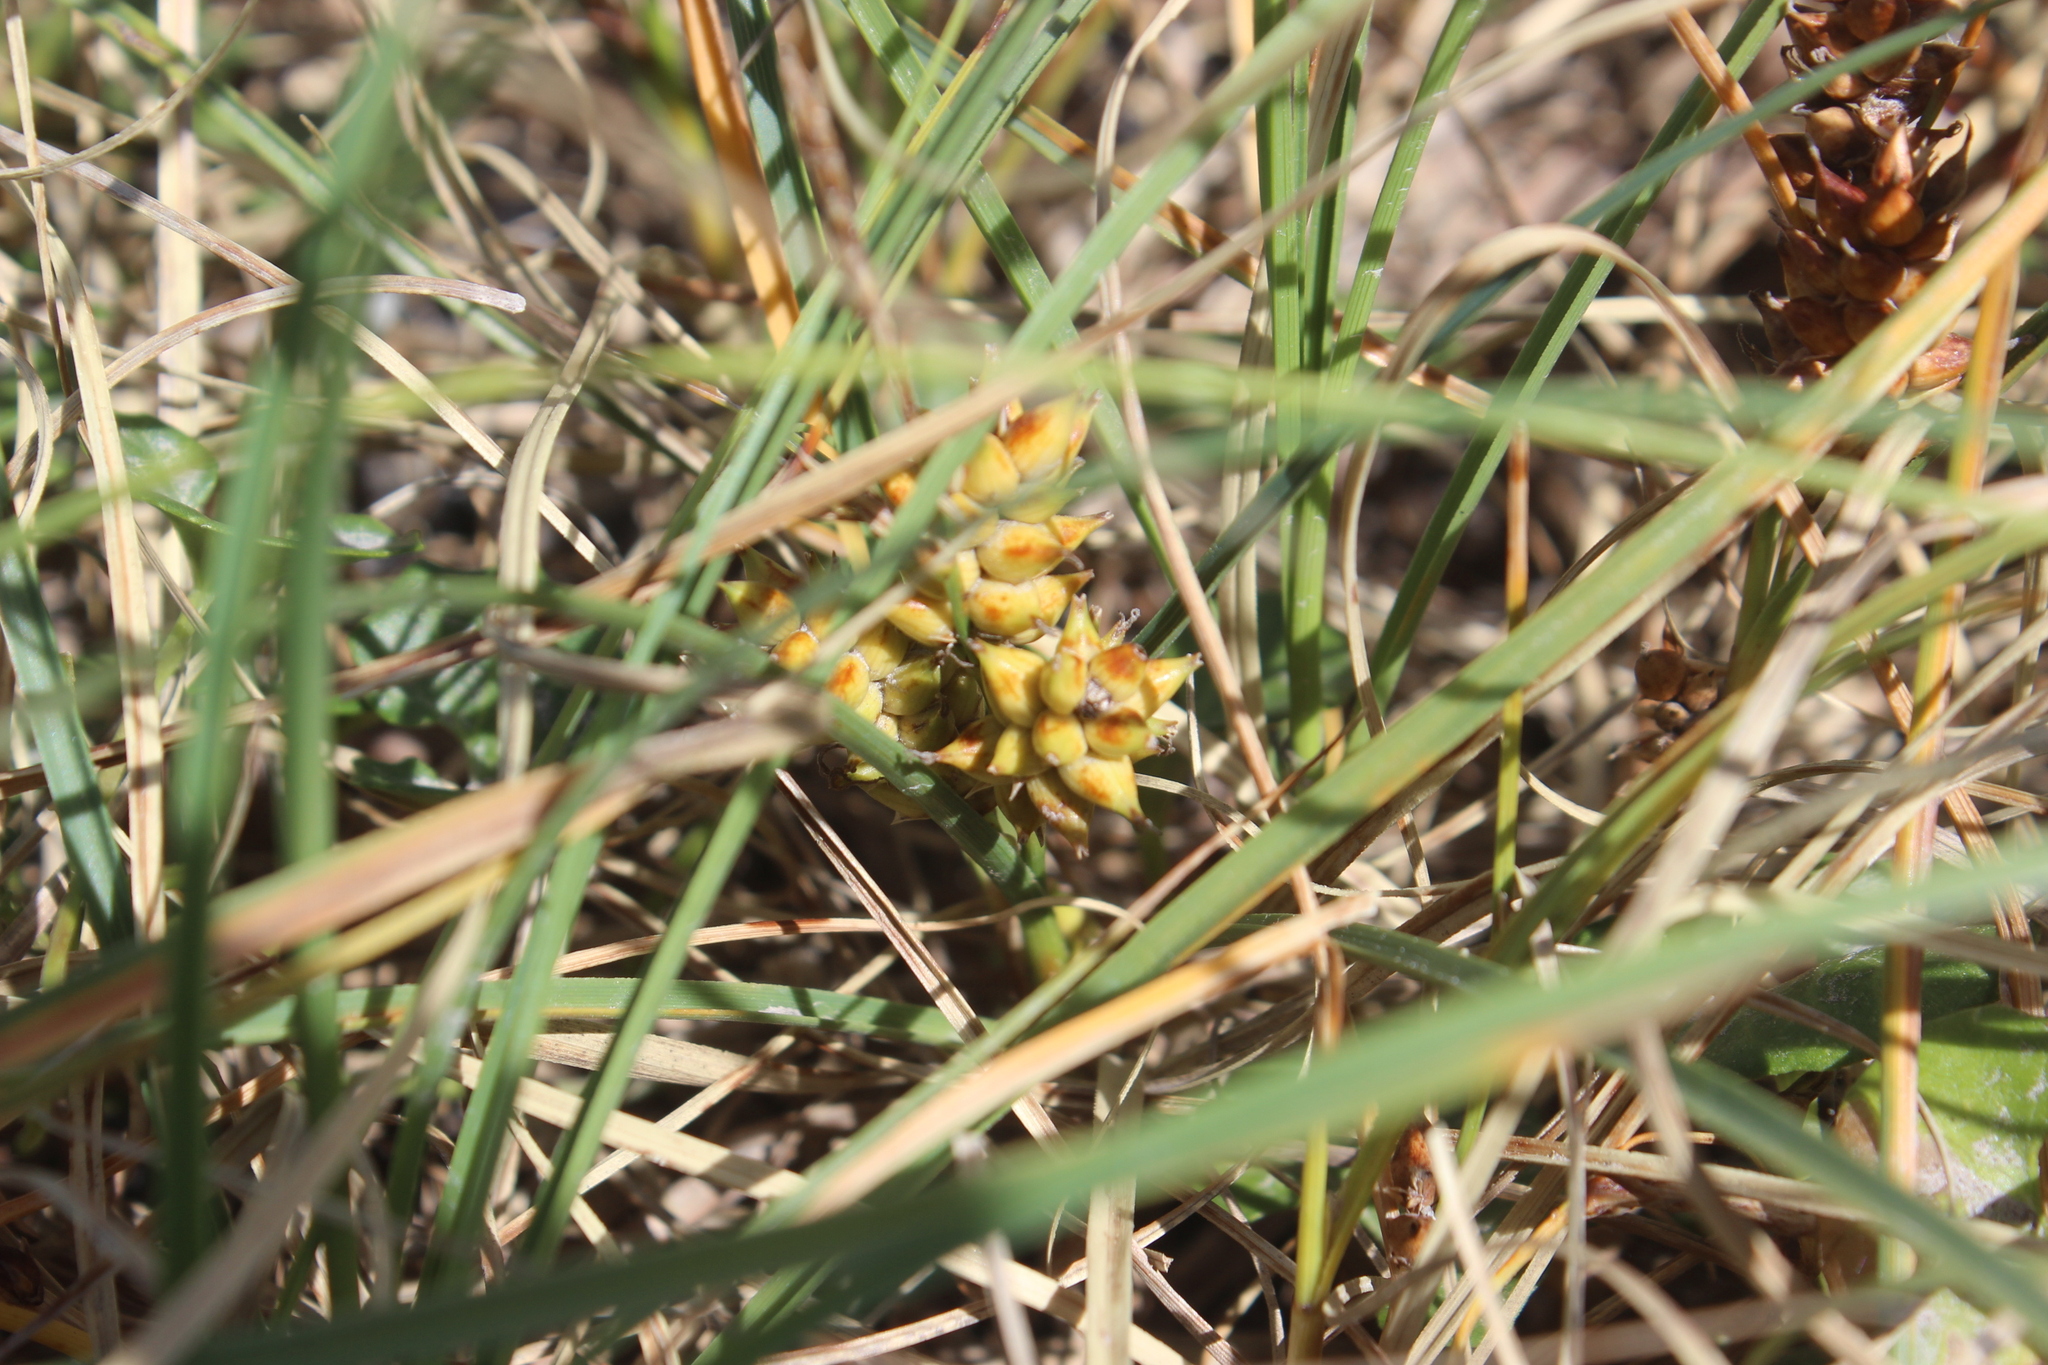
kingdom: Plantae
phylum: Tracheophyta
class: Liliopsida
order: Poales
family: Cyperaceae
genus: Carex
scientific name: Carex pumila
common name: Dwarf sedge
